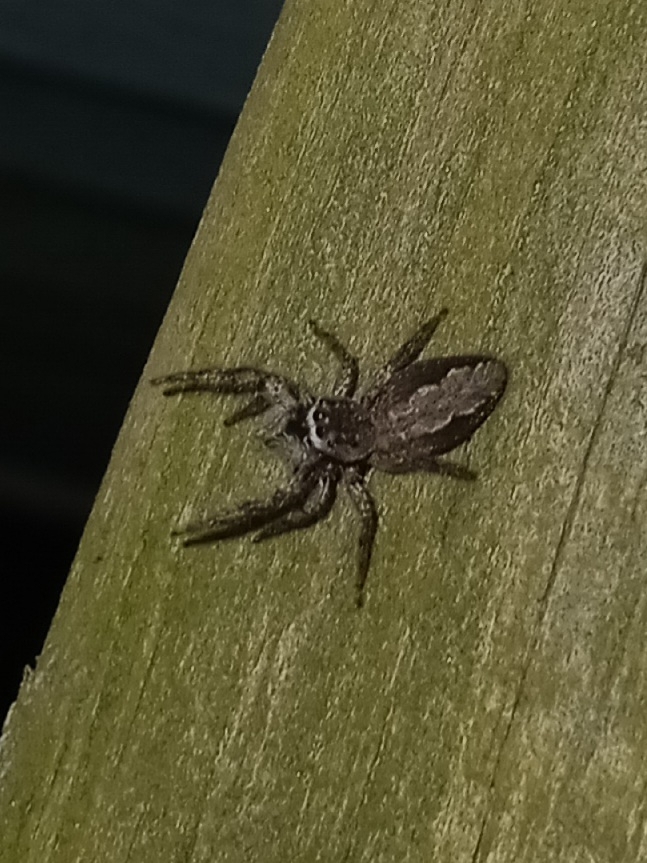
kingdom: Animalia
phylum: Arthropoda
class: Arachnida
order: Araneae
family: Salticidae
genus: Platycryptus
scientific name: Platycryptus undatus
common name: Tan jumping spider
